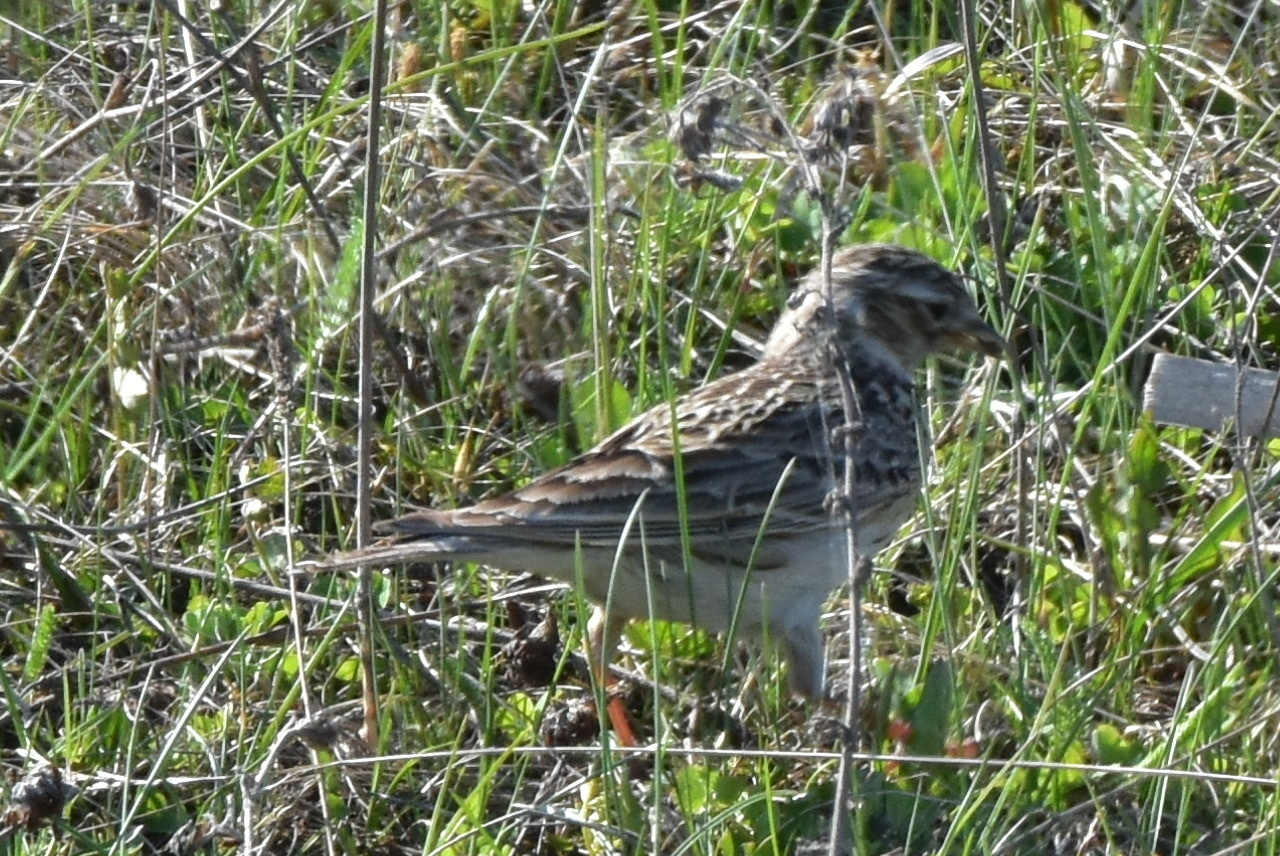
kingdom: Animalia
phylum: Chordata
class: Aves
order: Passeriformes
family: Alaudidae
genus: Alauda
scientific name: Alauda arvensis
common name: Eurasian skylark
